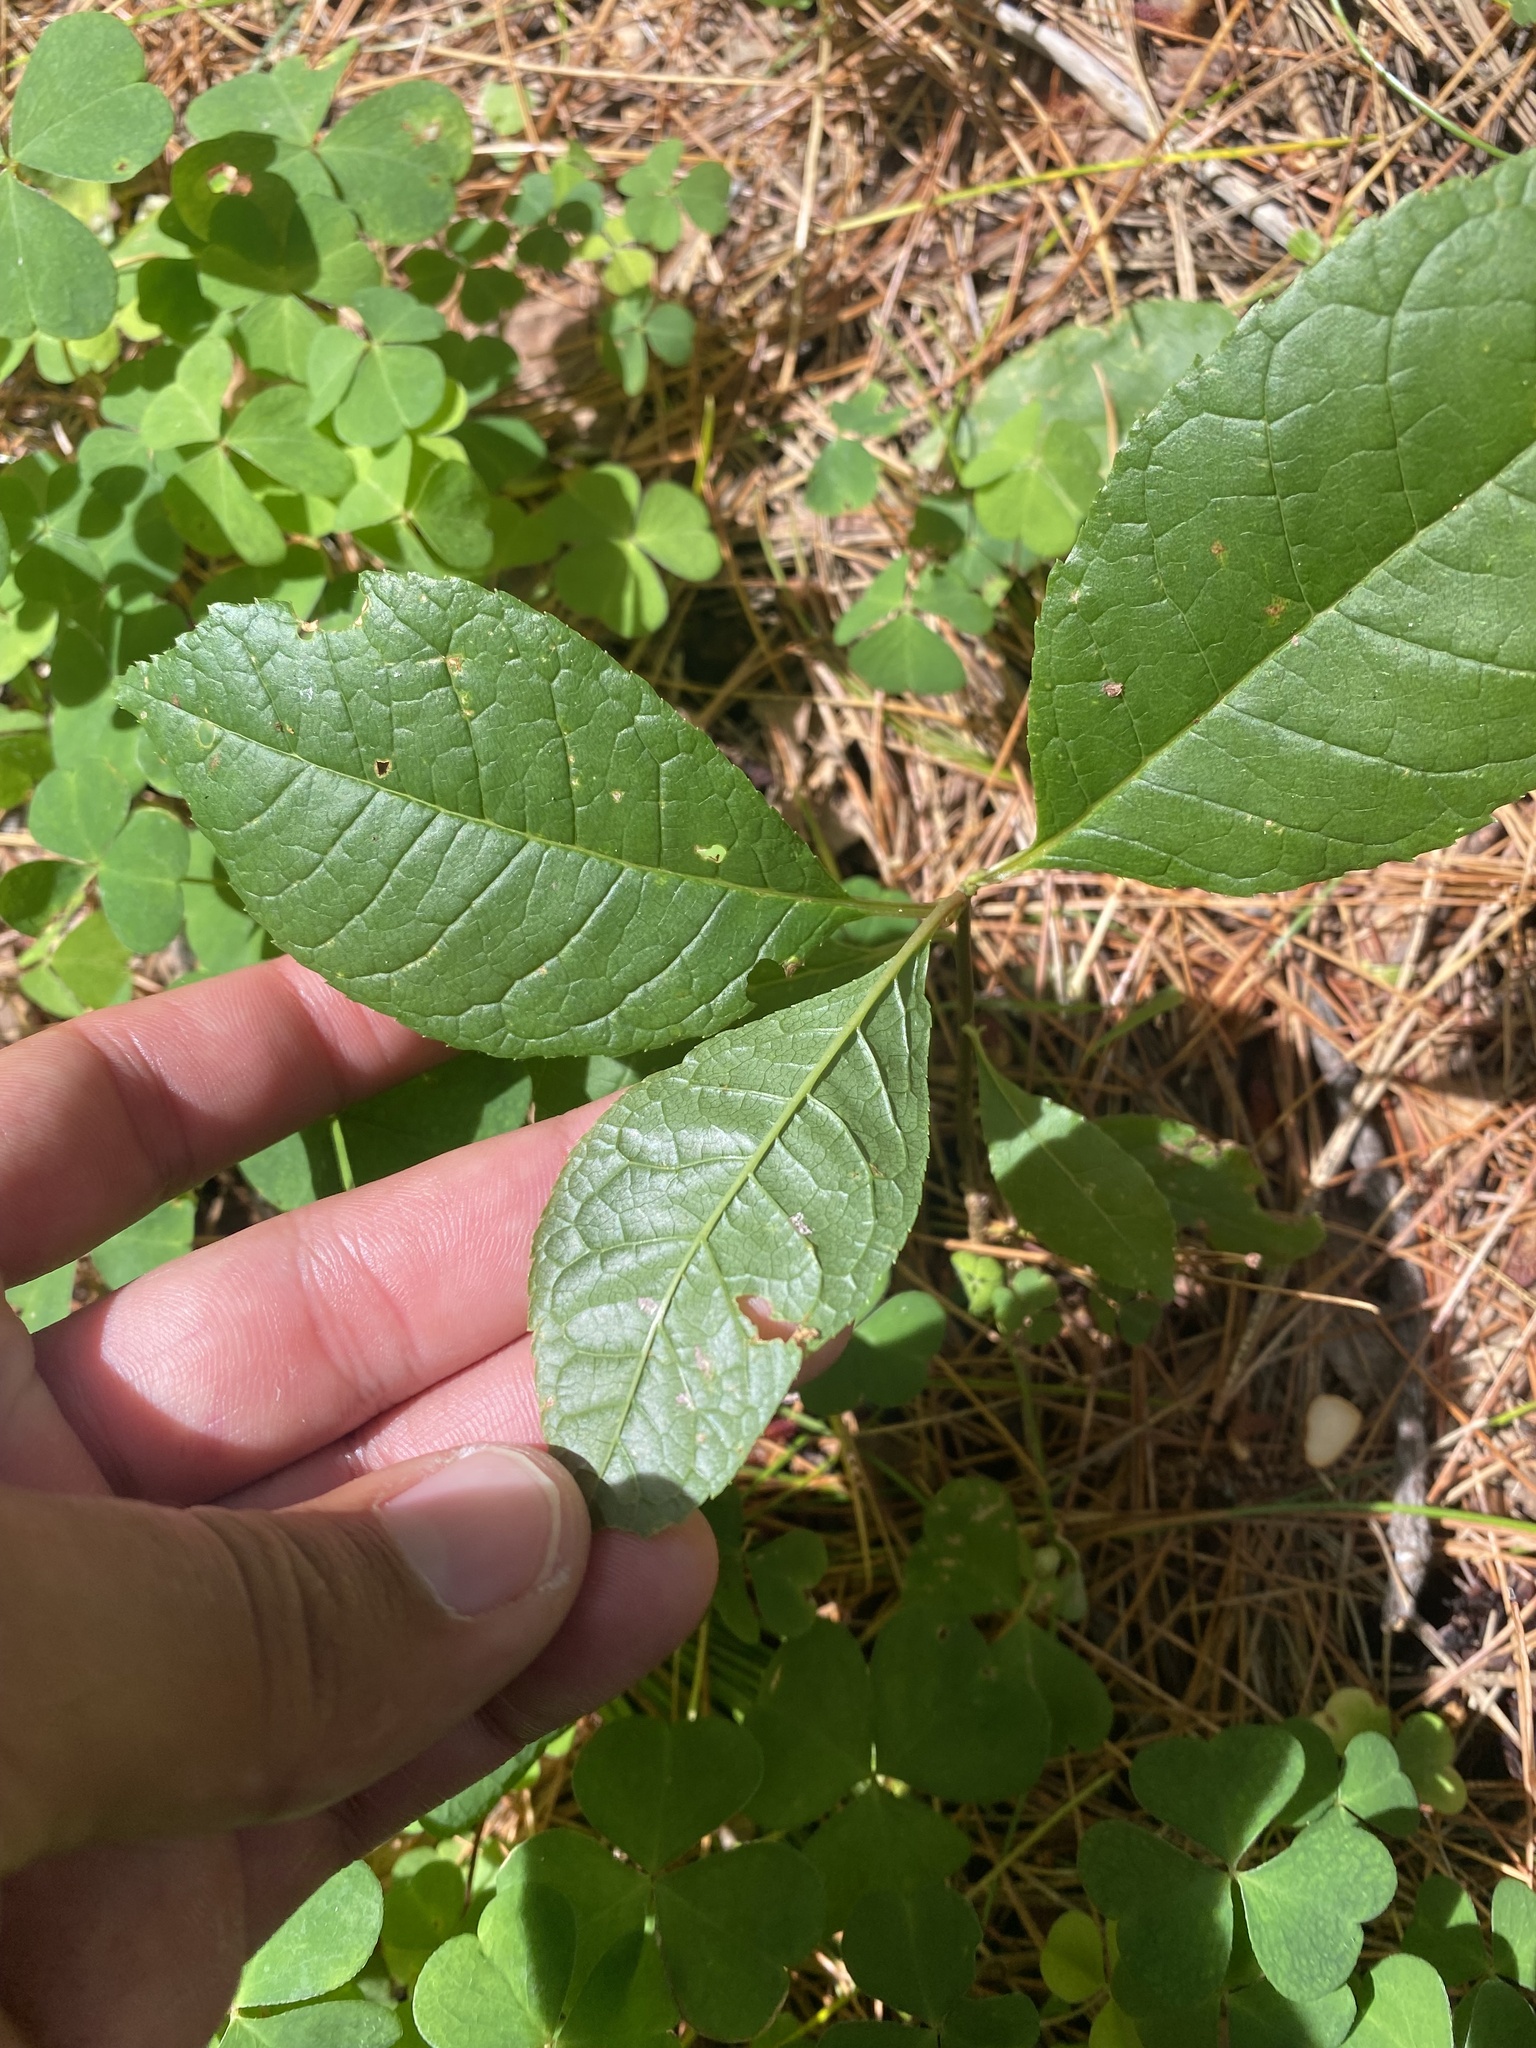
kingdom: Plantae
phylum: Tracheophyta
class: Magnoliopsida
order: Rosales
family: Rosaceae
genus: Prunus
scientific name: Prunus padus
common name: Bird cherry
